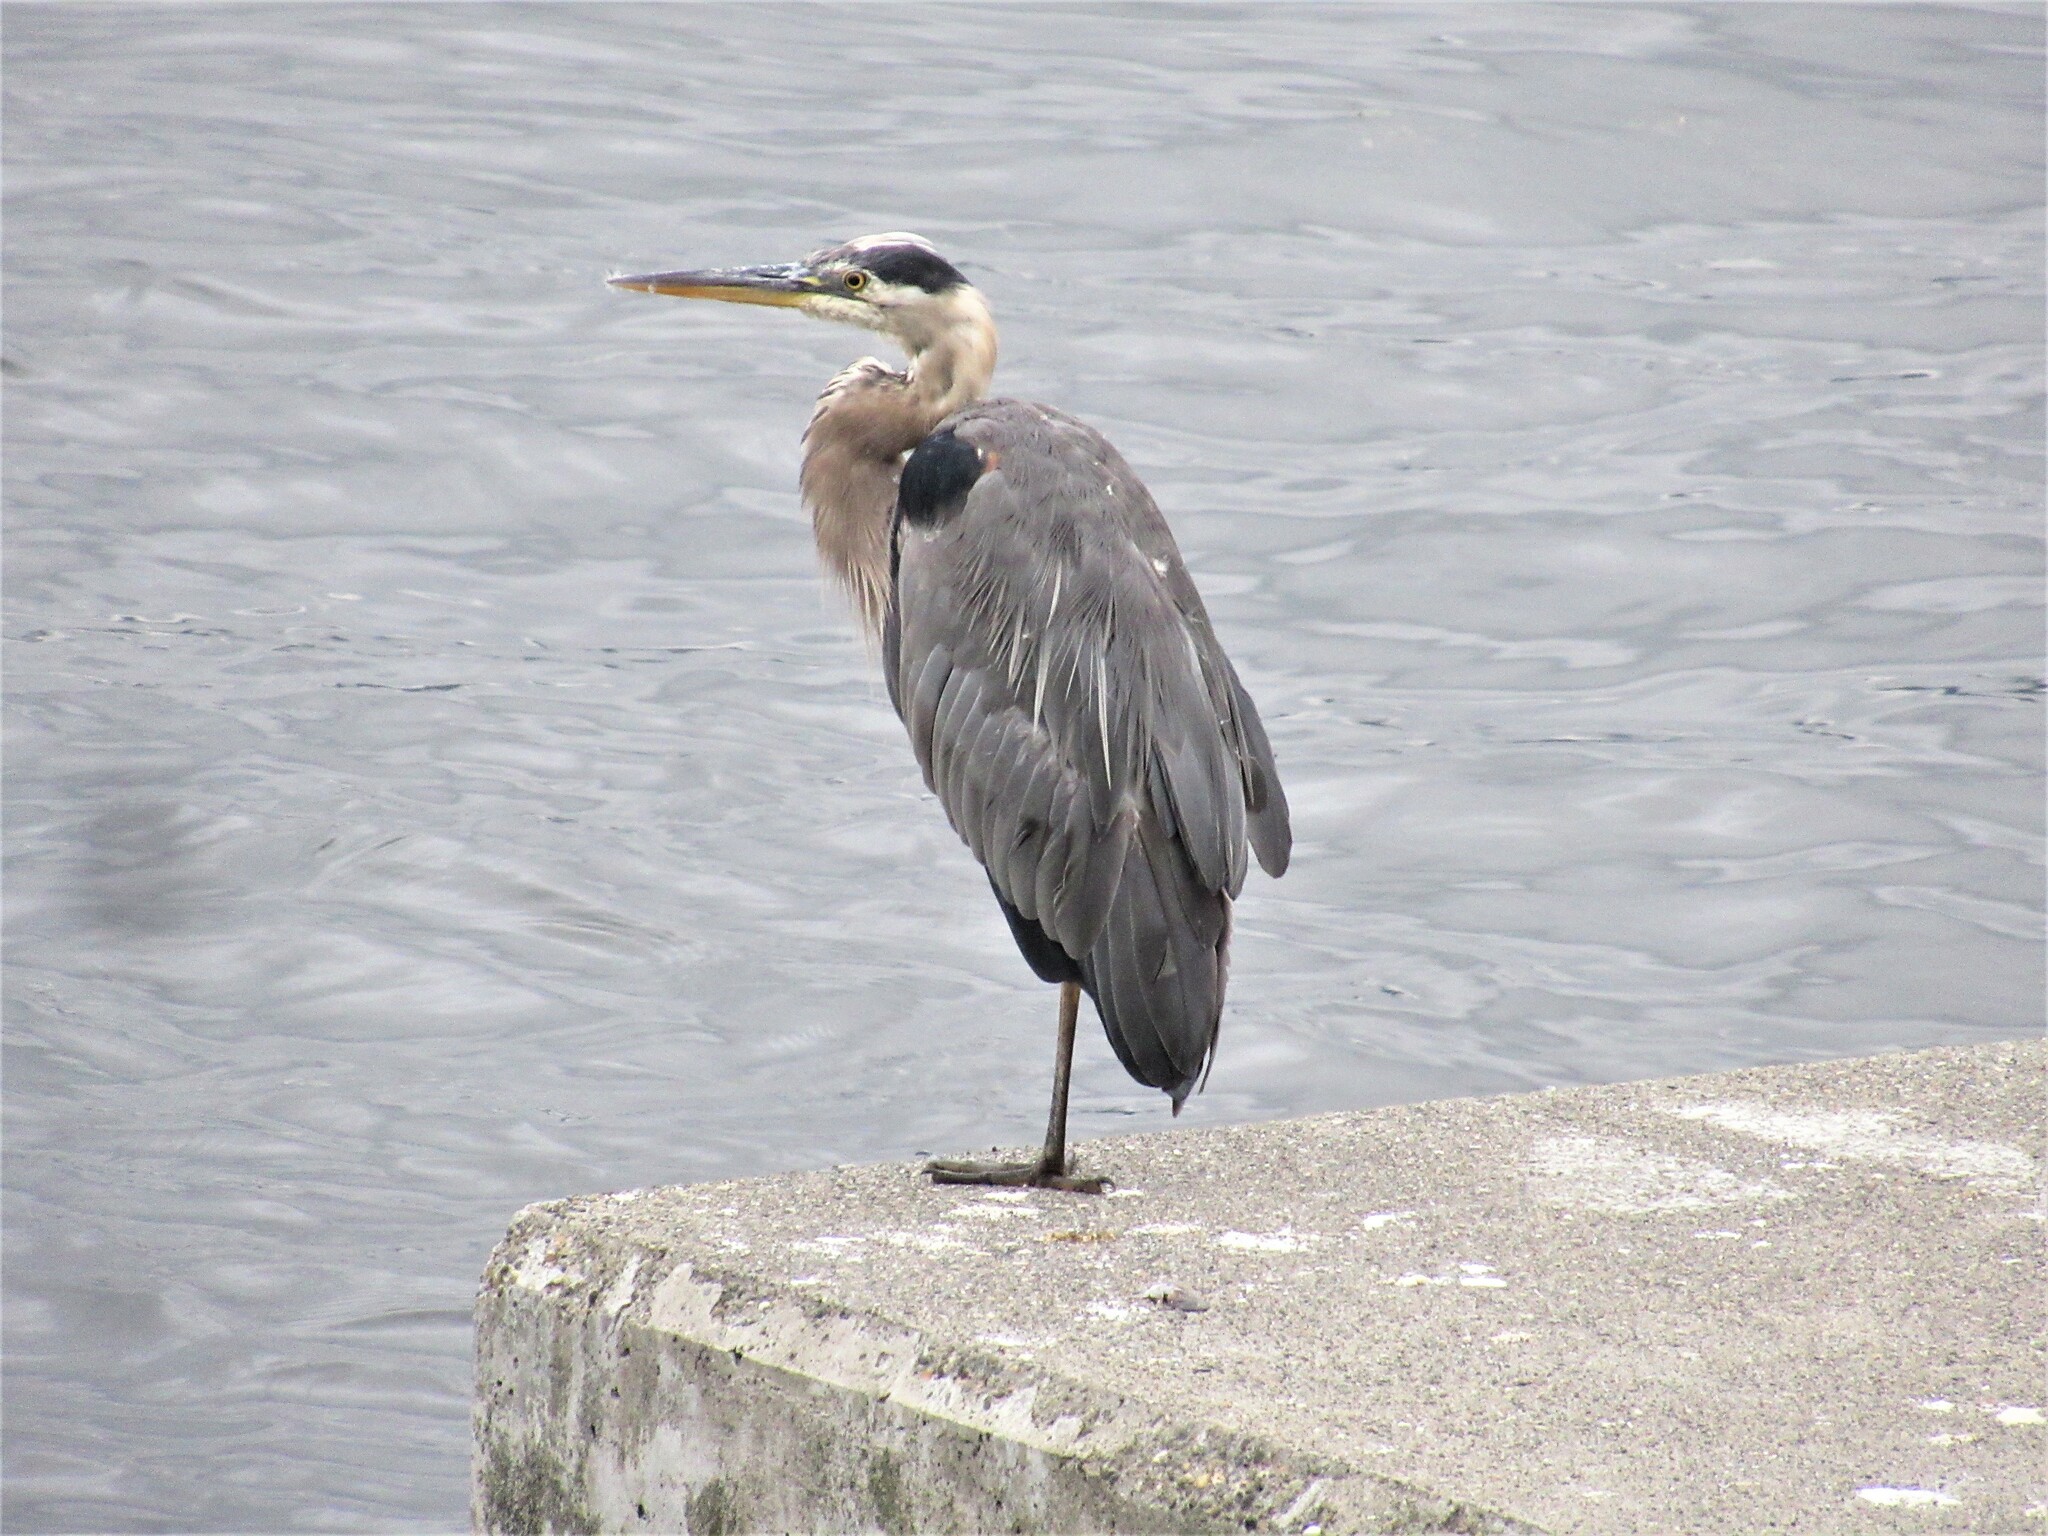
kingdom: Animalia
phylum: Chordata
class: Aves
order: Pelecaniformes
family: Ardeidae
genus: Ardea
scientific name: Ardea herodias
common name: Great blue heron
